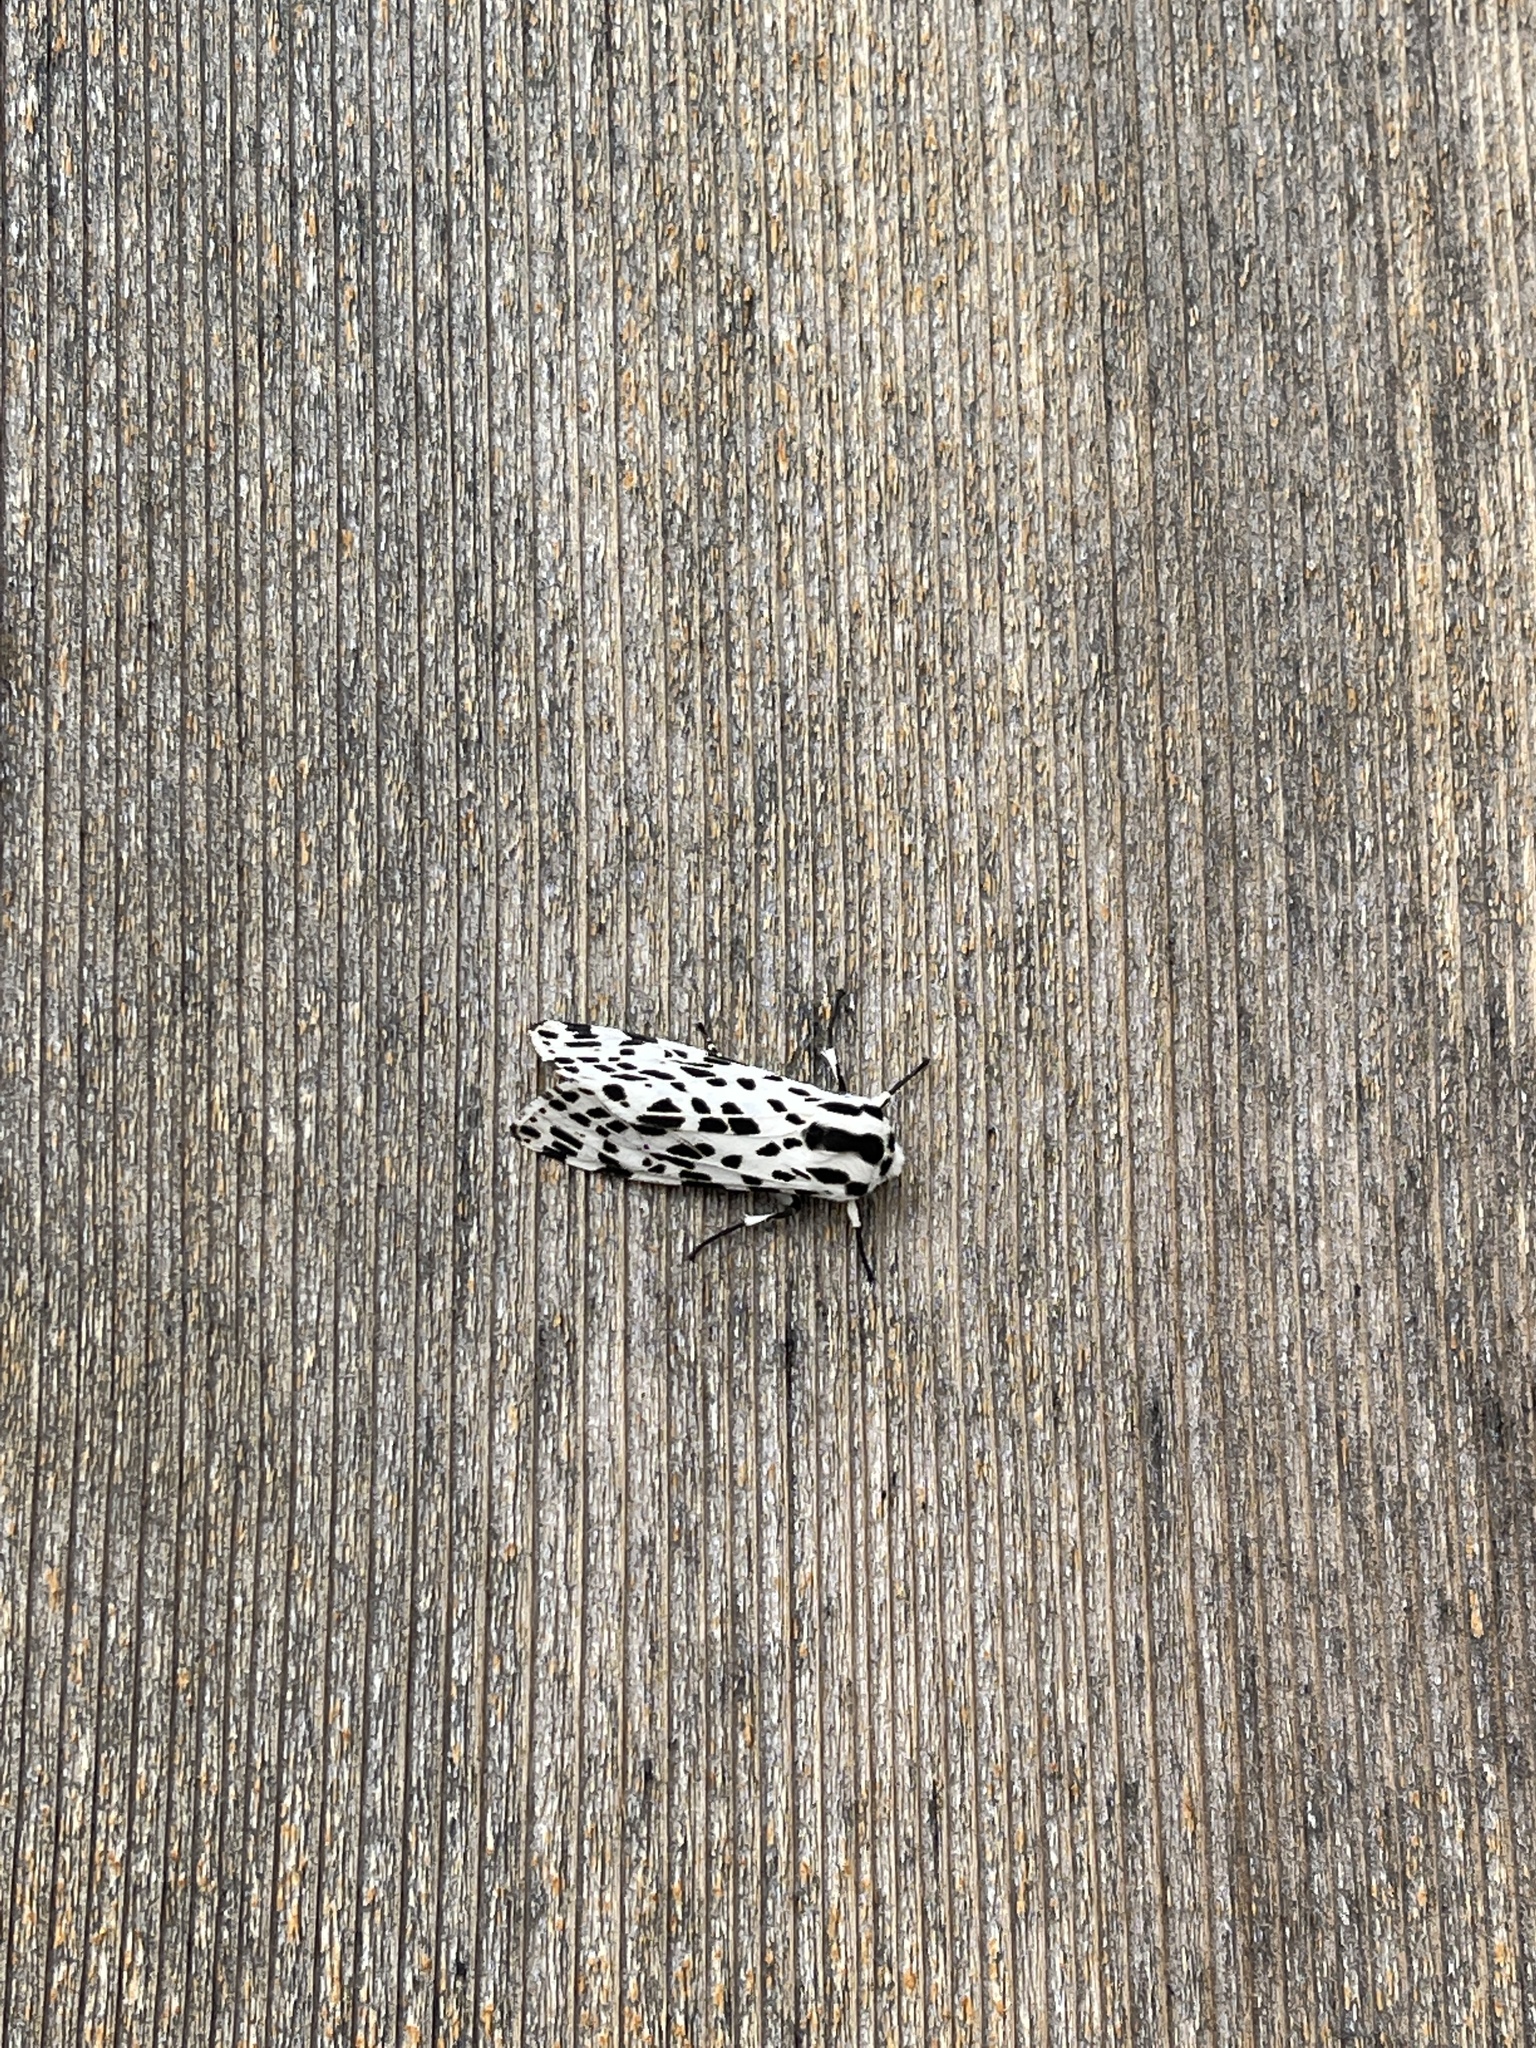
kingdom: Animalia
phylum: Arthropoda
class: Insecta
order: Lepidoptera
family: Erebidae
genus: Hypercompe
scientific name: Hypercompe permaculata
